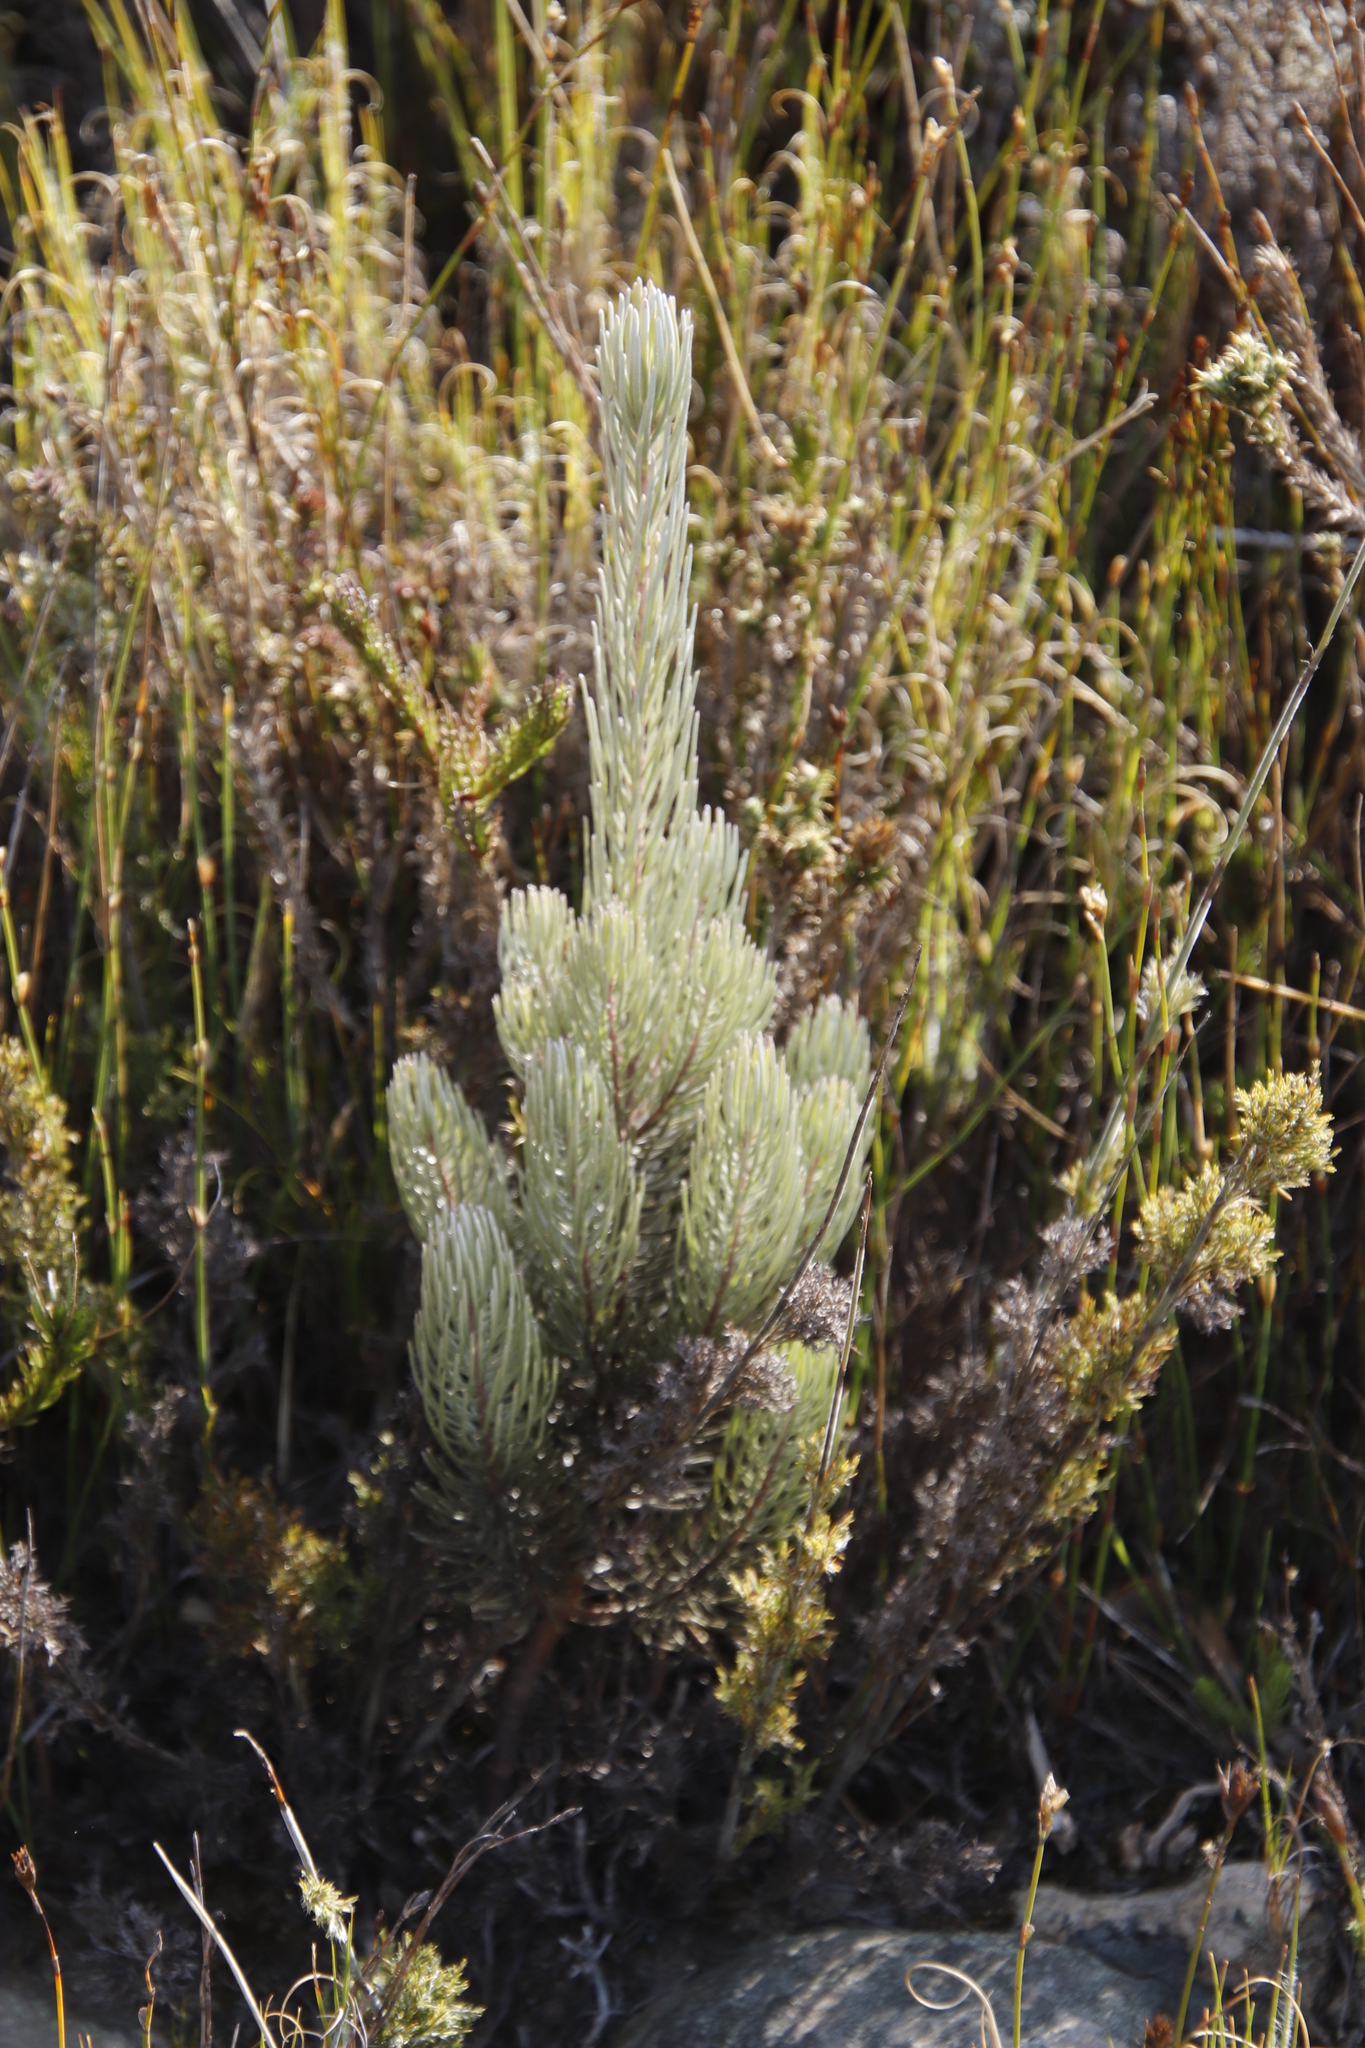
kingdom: Plantae
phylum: Tracheophyta
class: Magnoliopsida
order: Proteales
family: Proteaceae
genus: Leucadendron
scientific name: Leucadendron album
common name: Linear-leaf conebush
